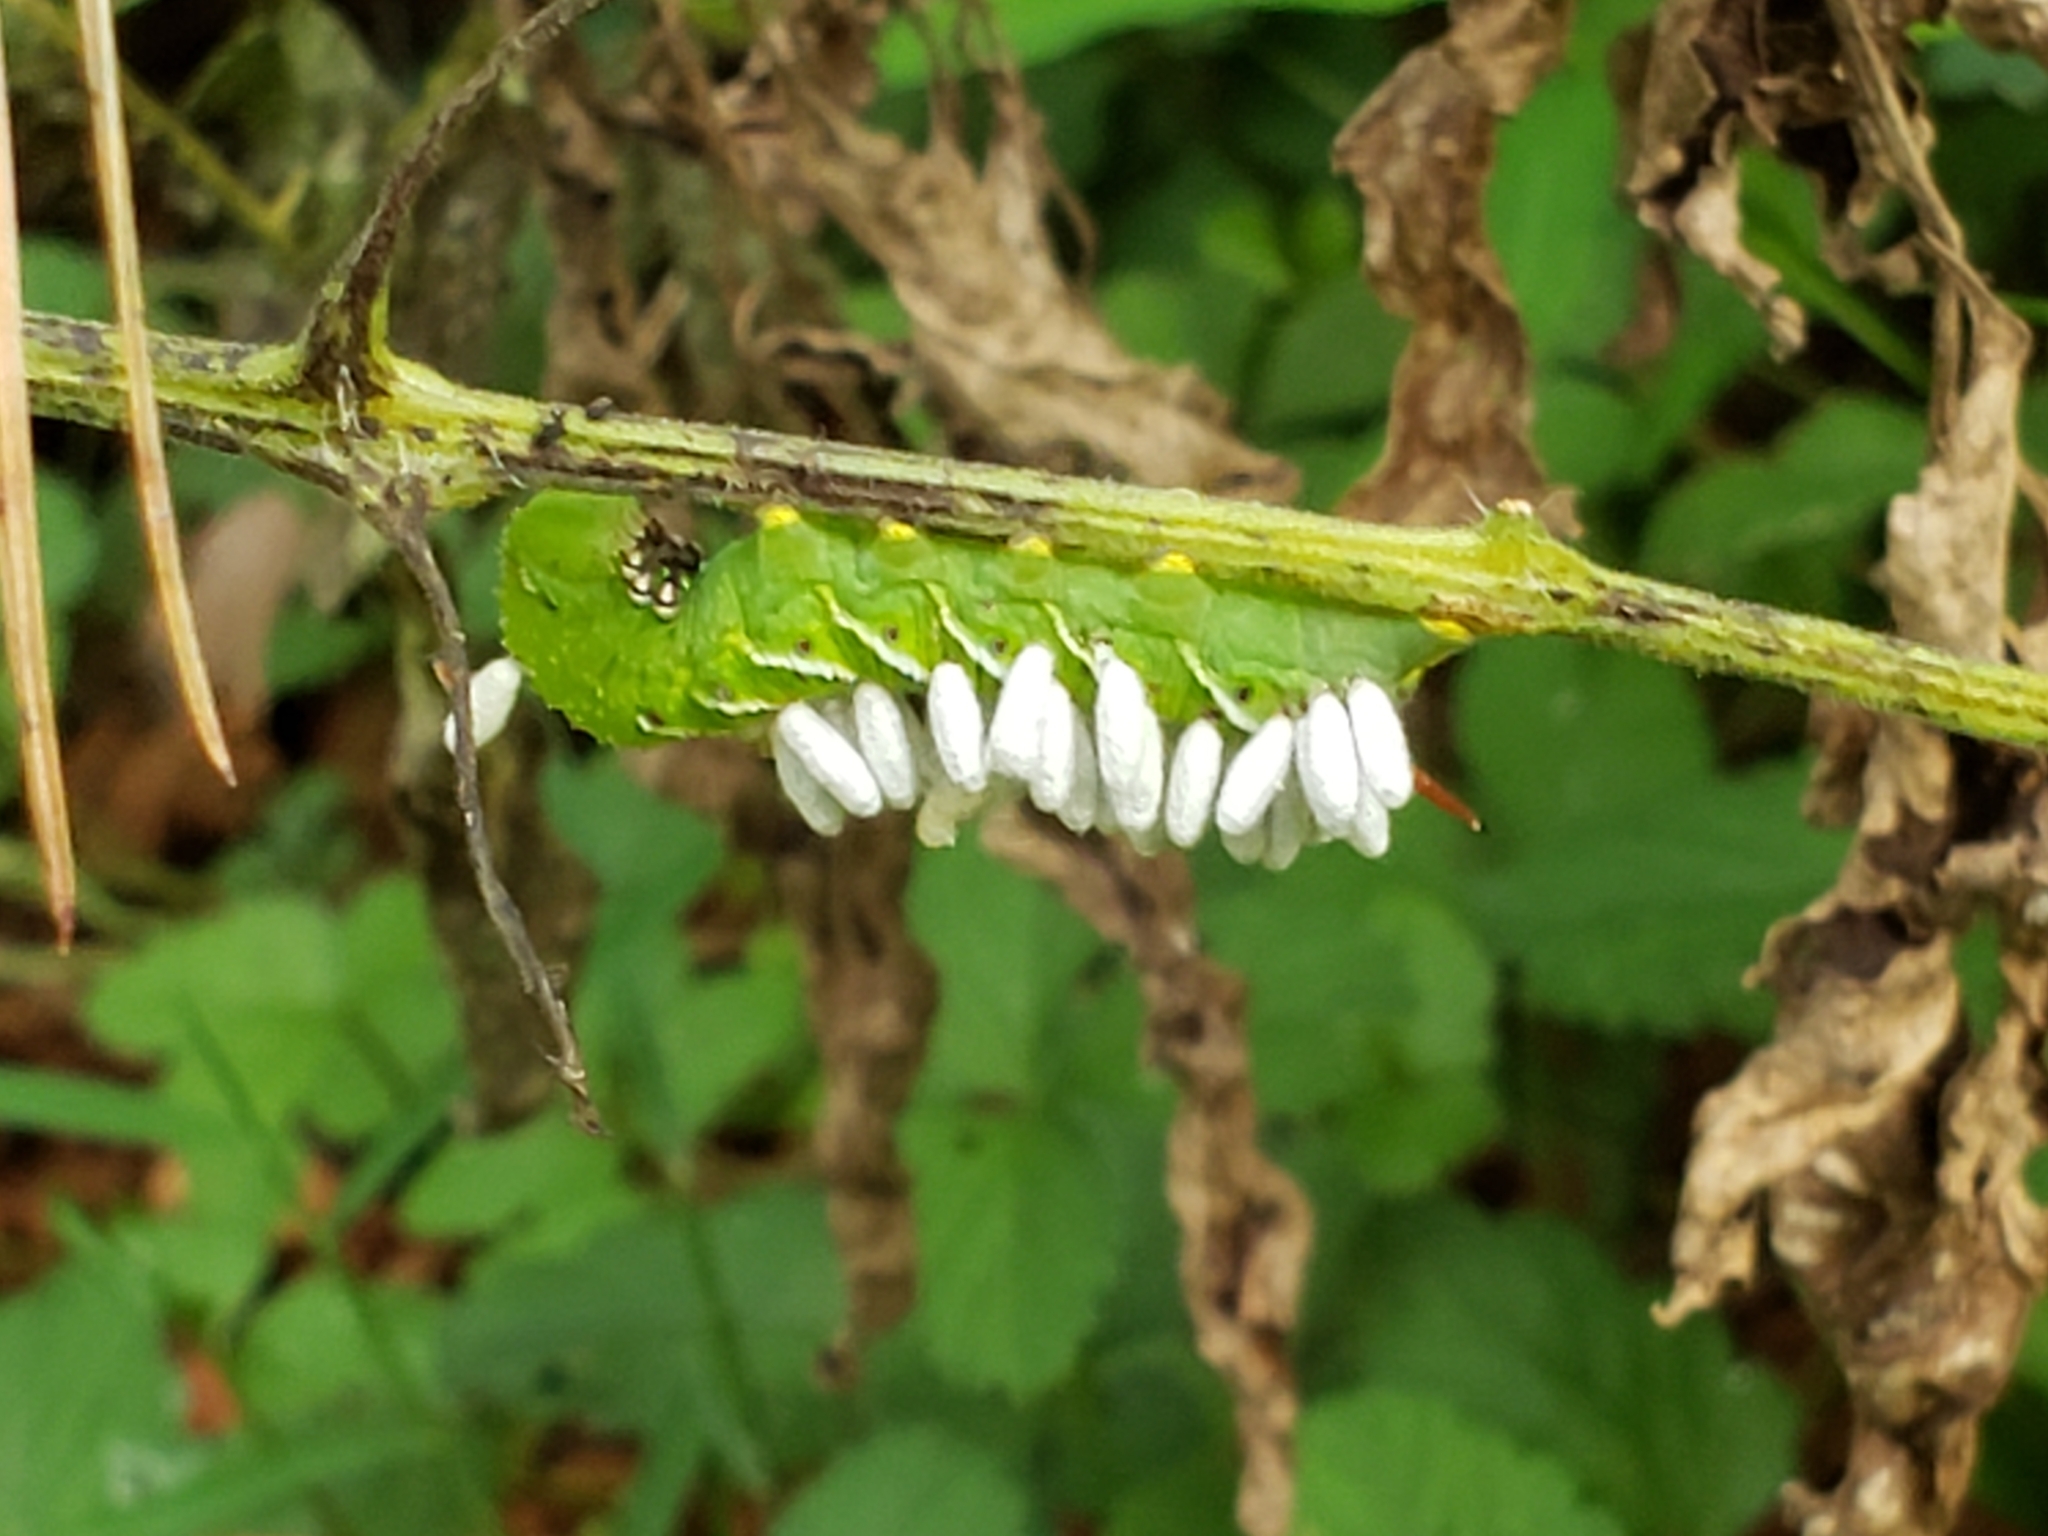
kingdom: Animalia
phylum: Arthropoda
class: Insecta
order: Hymenoptera
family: Braconidae
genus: Cotesia
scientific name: Cotesia congregata
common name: Hornworm parasitoid wasp
